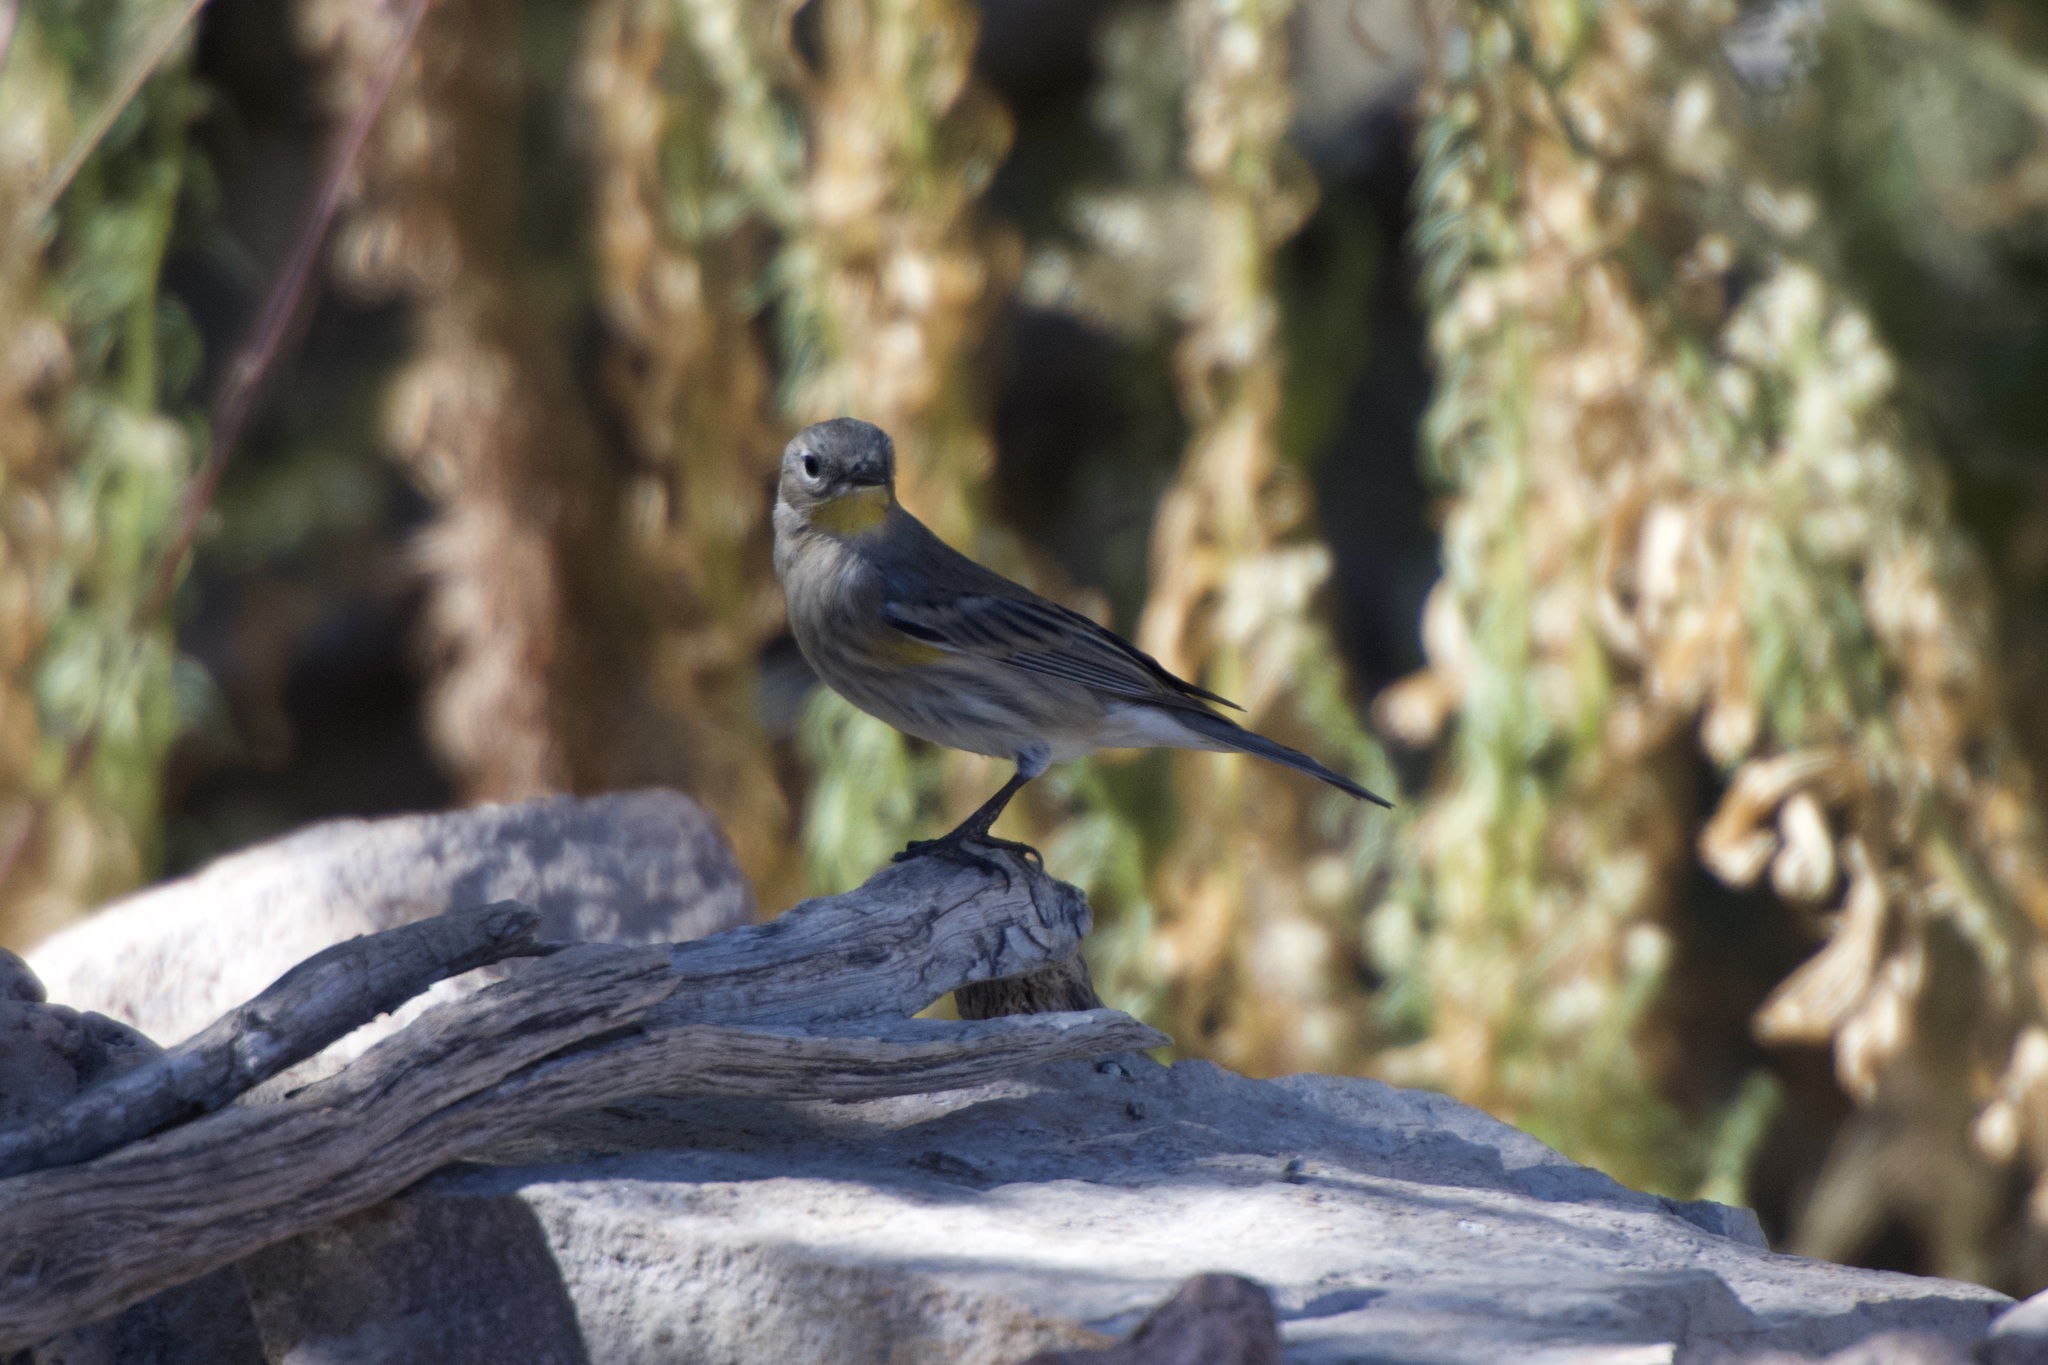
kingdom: Animalia
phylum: Chordata
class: Aves
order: Passeriformes
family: Parulidae
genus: Setophaga
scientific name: Setophaga auduboni
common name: Audubon's warbler
